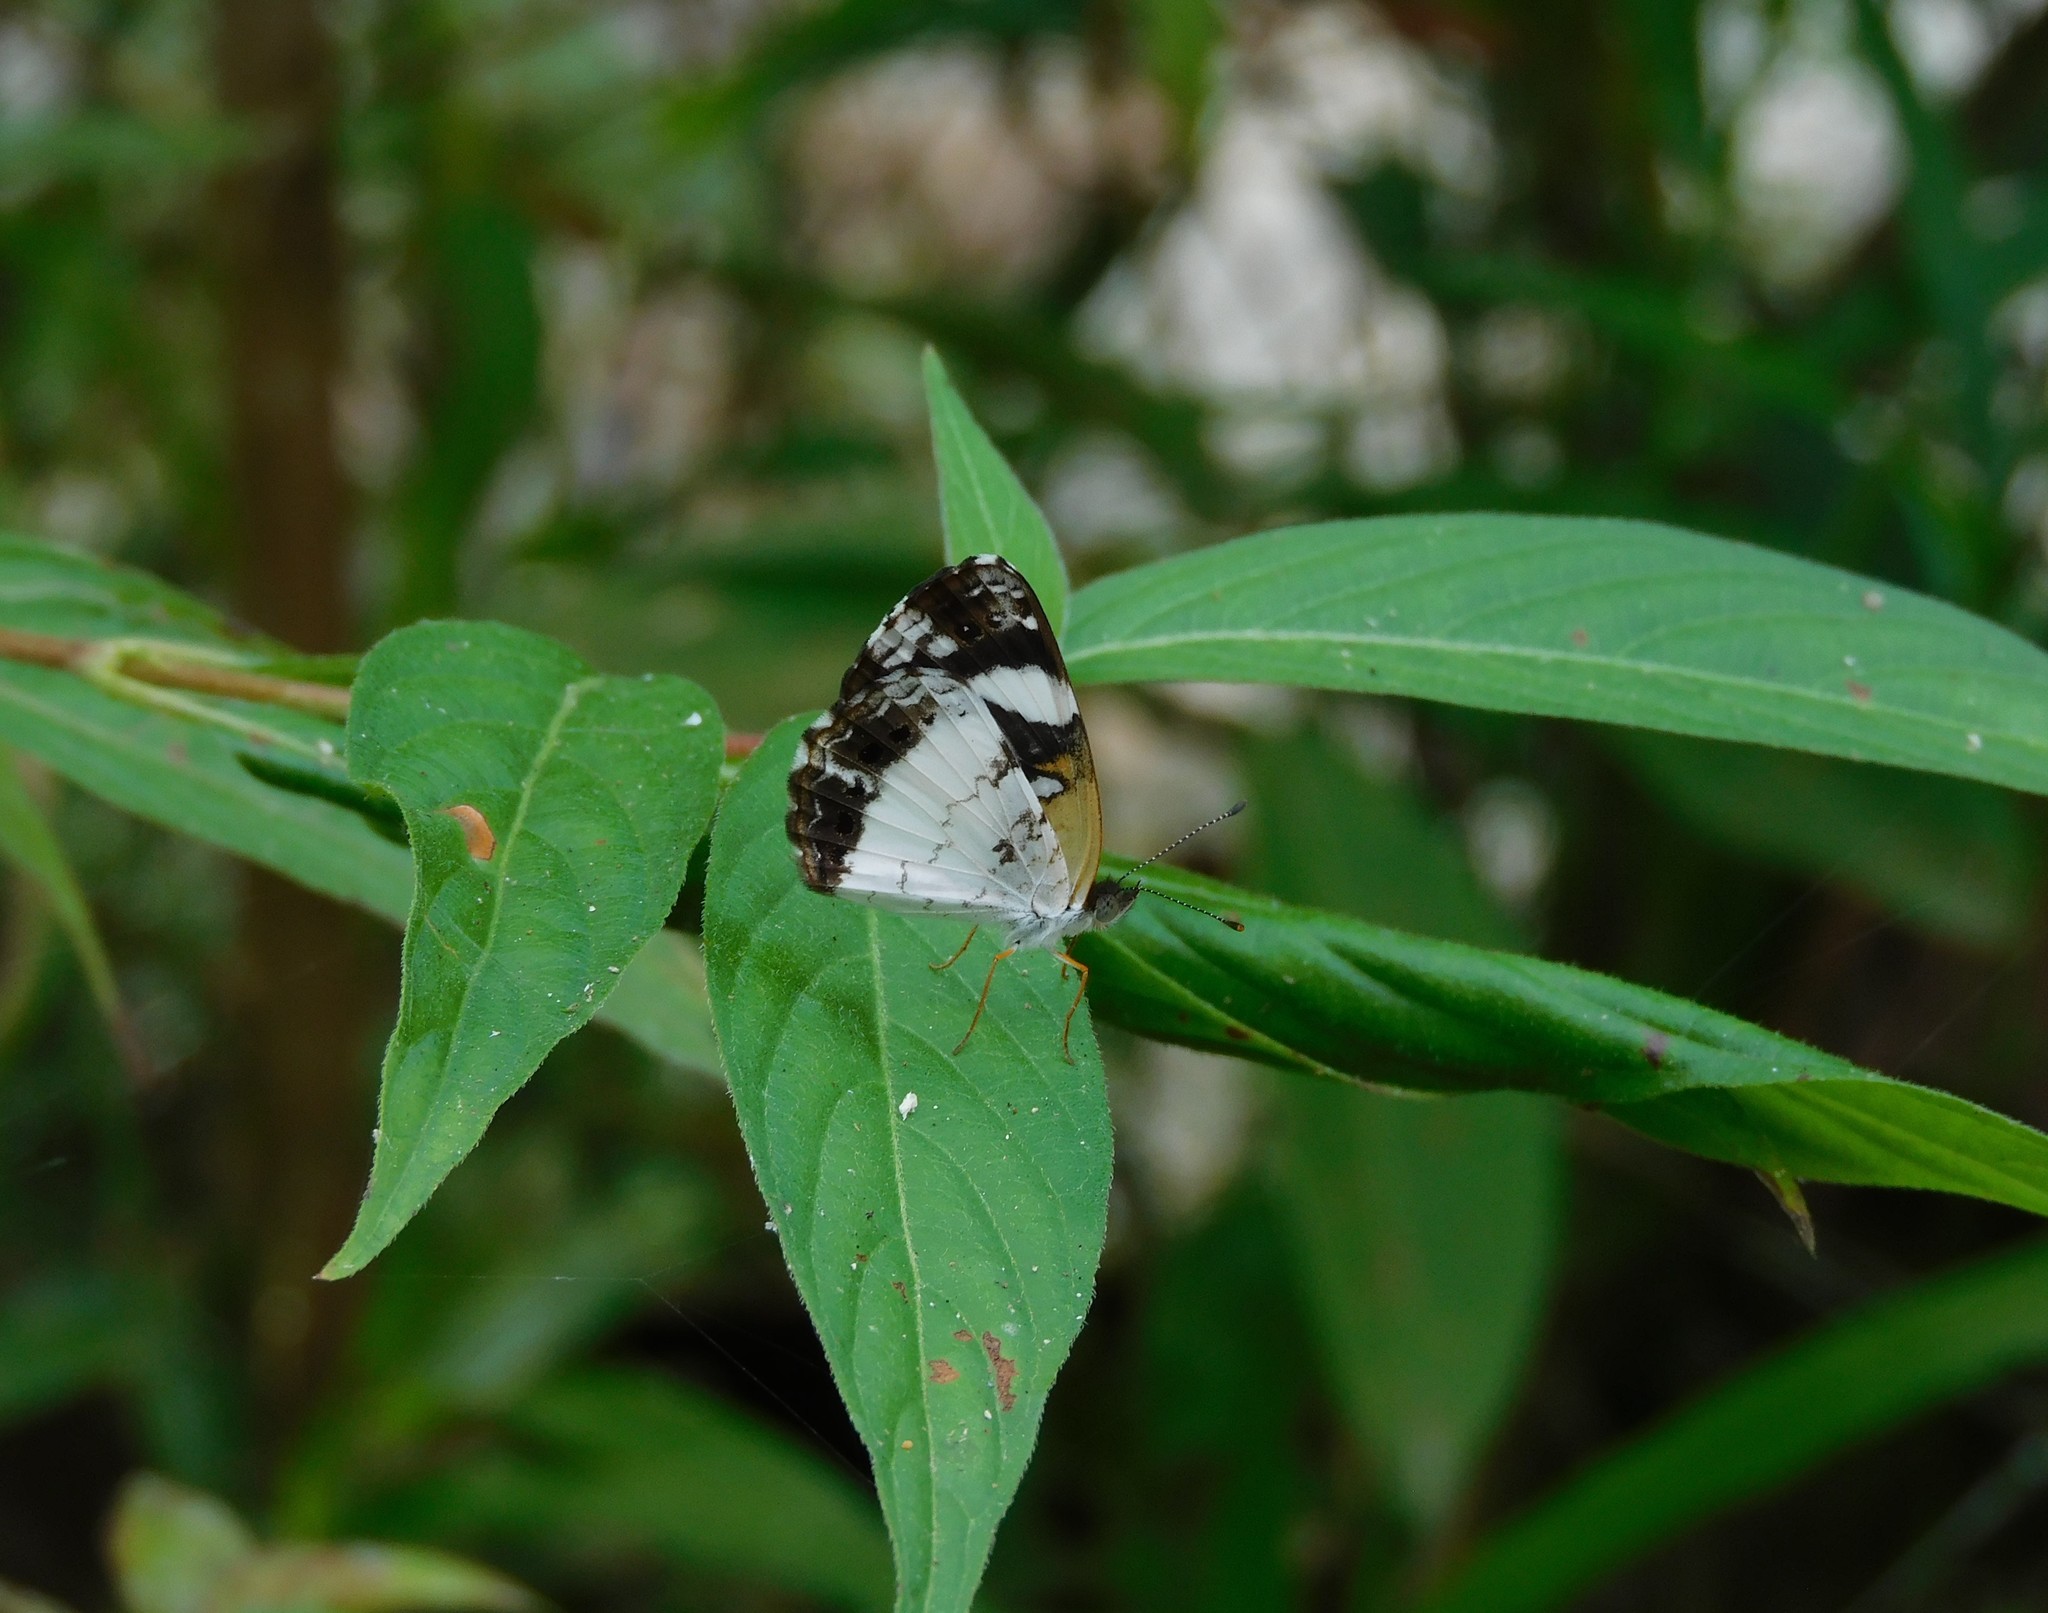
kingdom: Animalia
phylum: Arthropoda
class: Insecta
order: Lepidoptera
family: Nymphalidae
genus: Janatella
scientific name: Janatella leucodesma
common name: Whitened crescent
